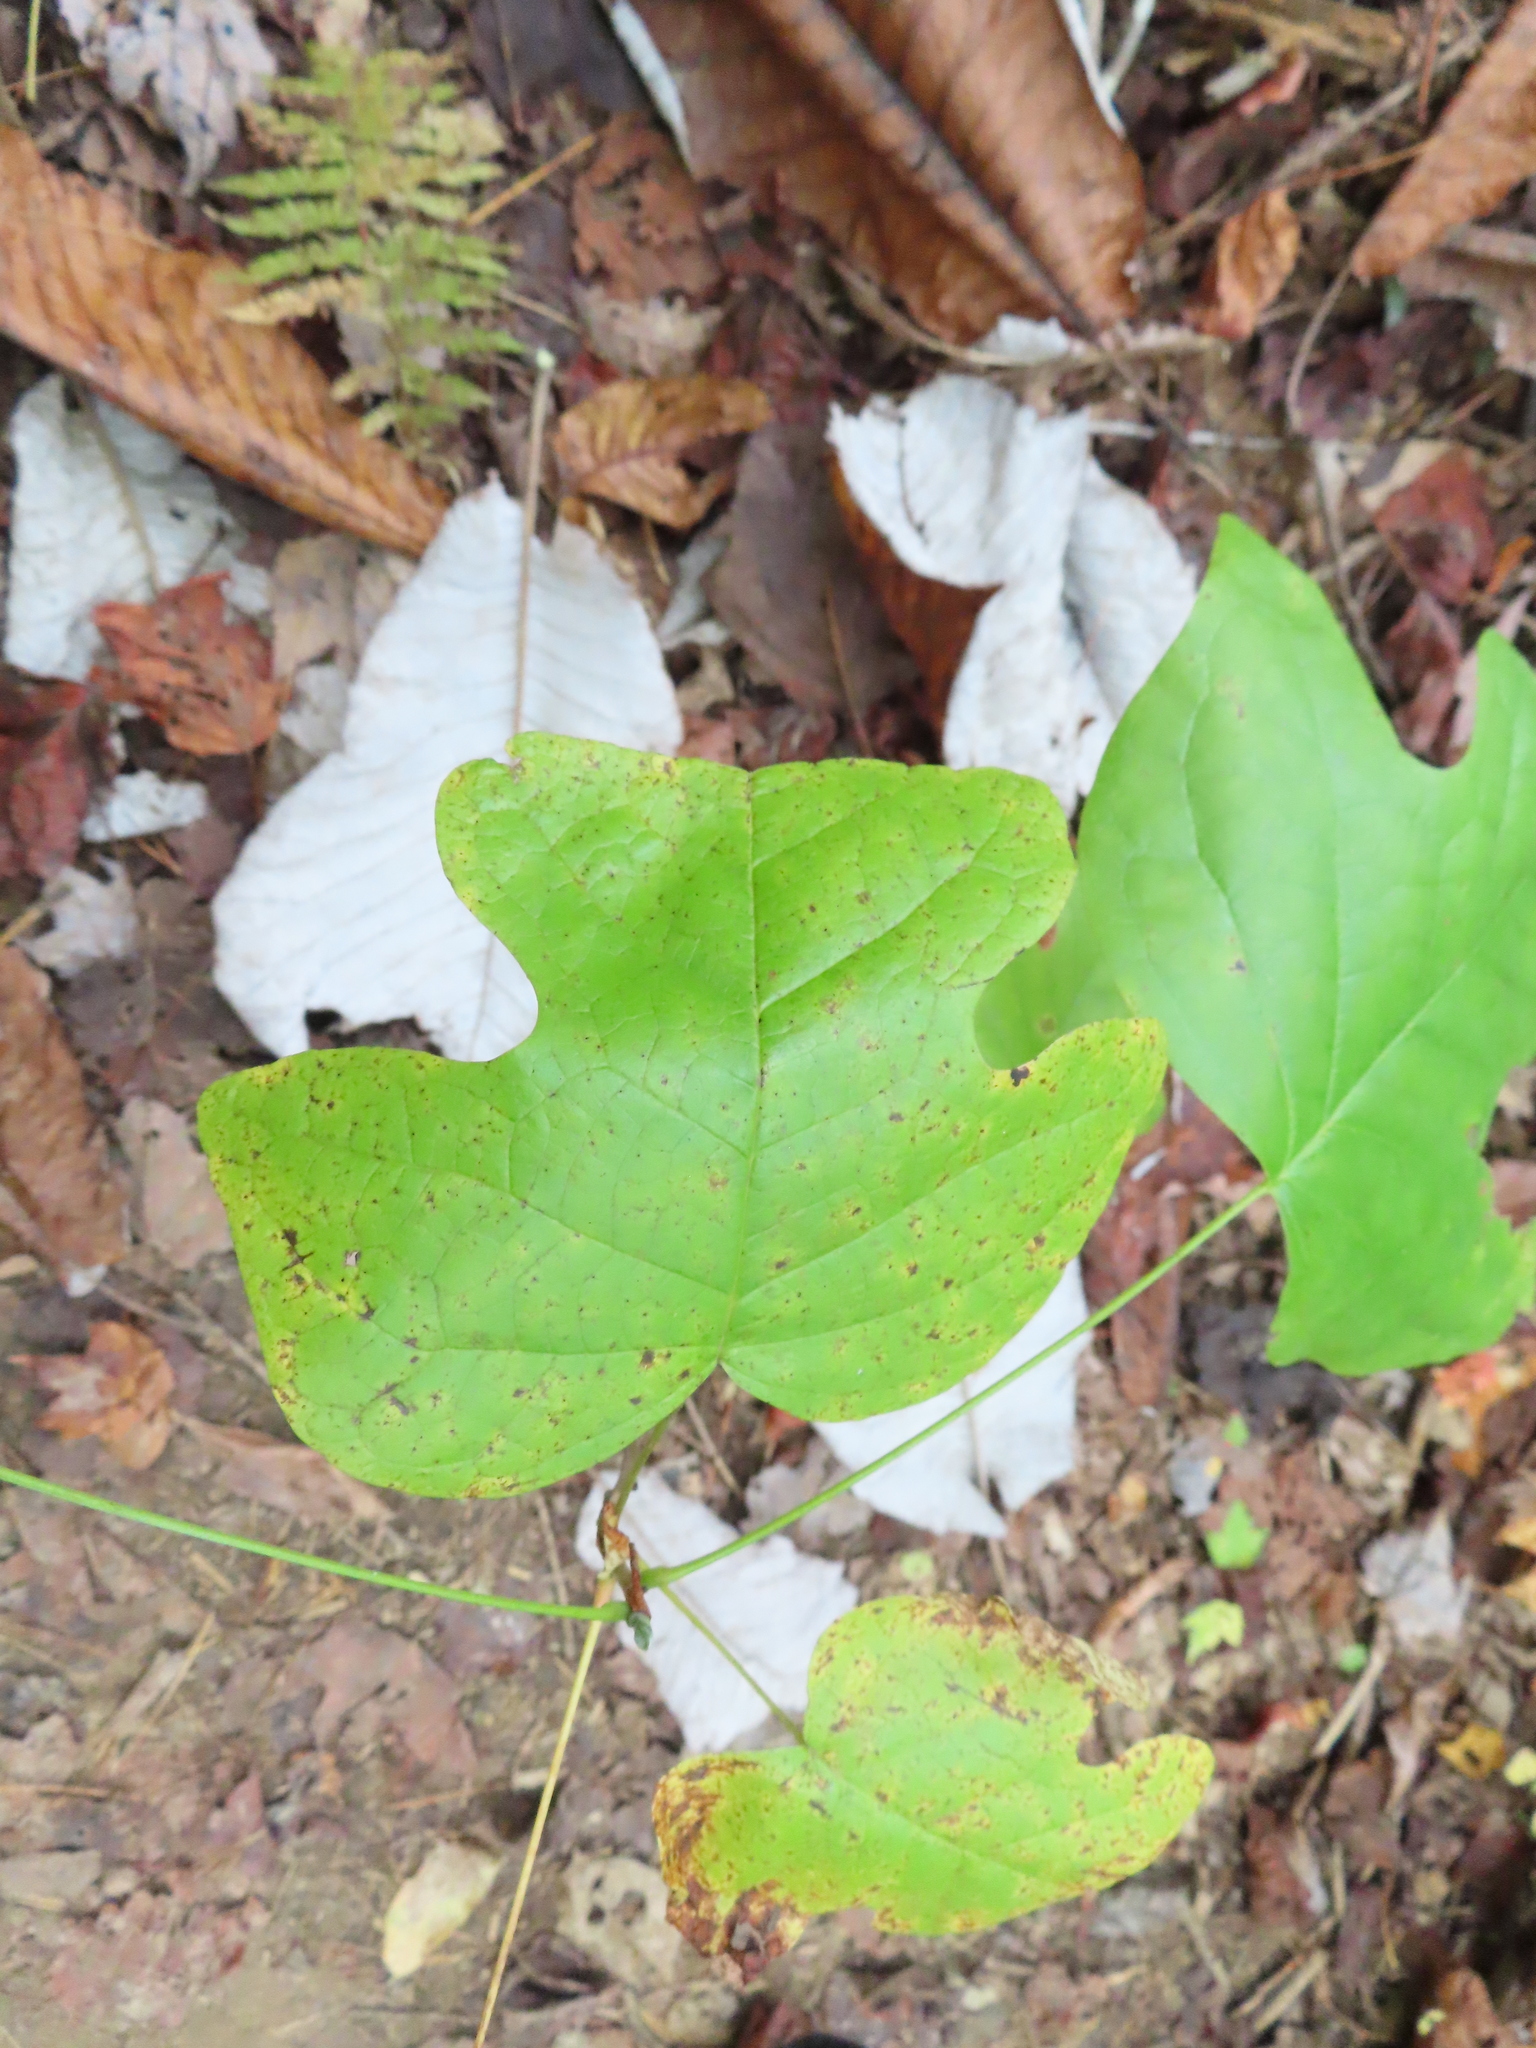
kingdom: Plantae
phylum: Tracheophyta
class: Magnoliopsida
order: Magnoliales
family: Magnoliaceae
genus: Liriodendron
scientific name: Liriodendron tulipifera
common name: Tulip tree
